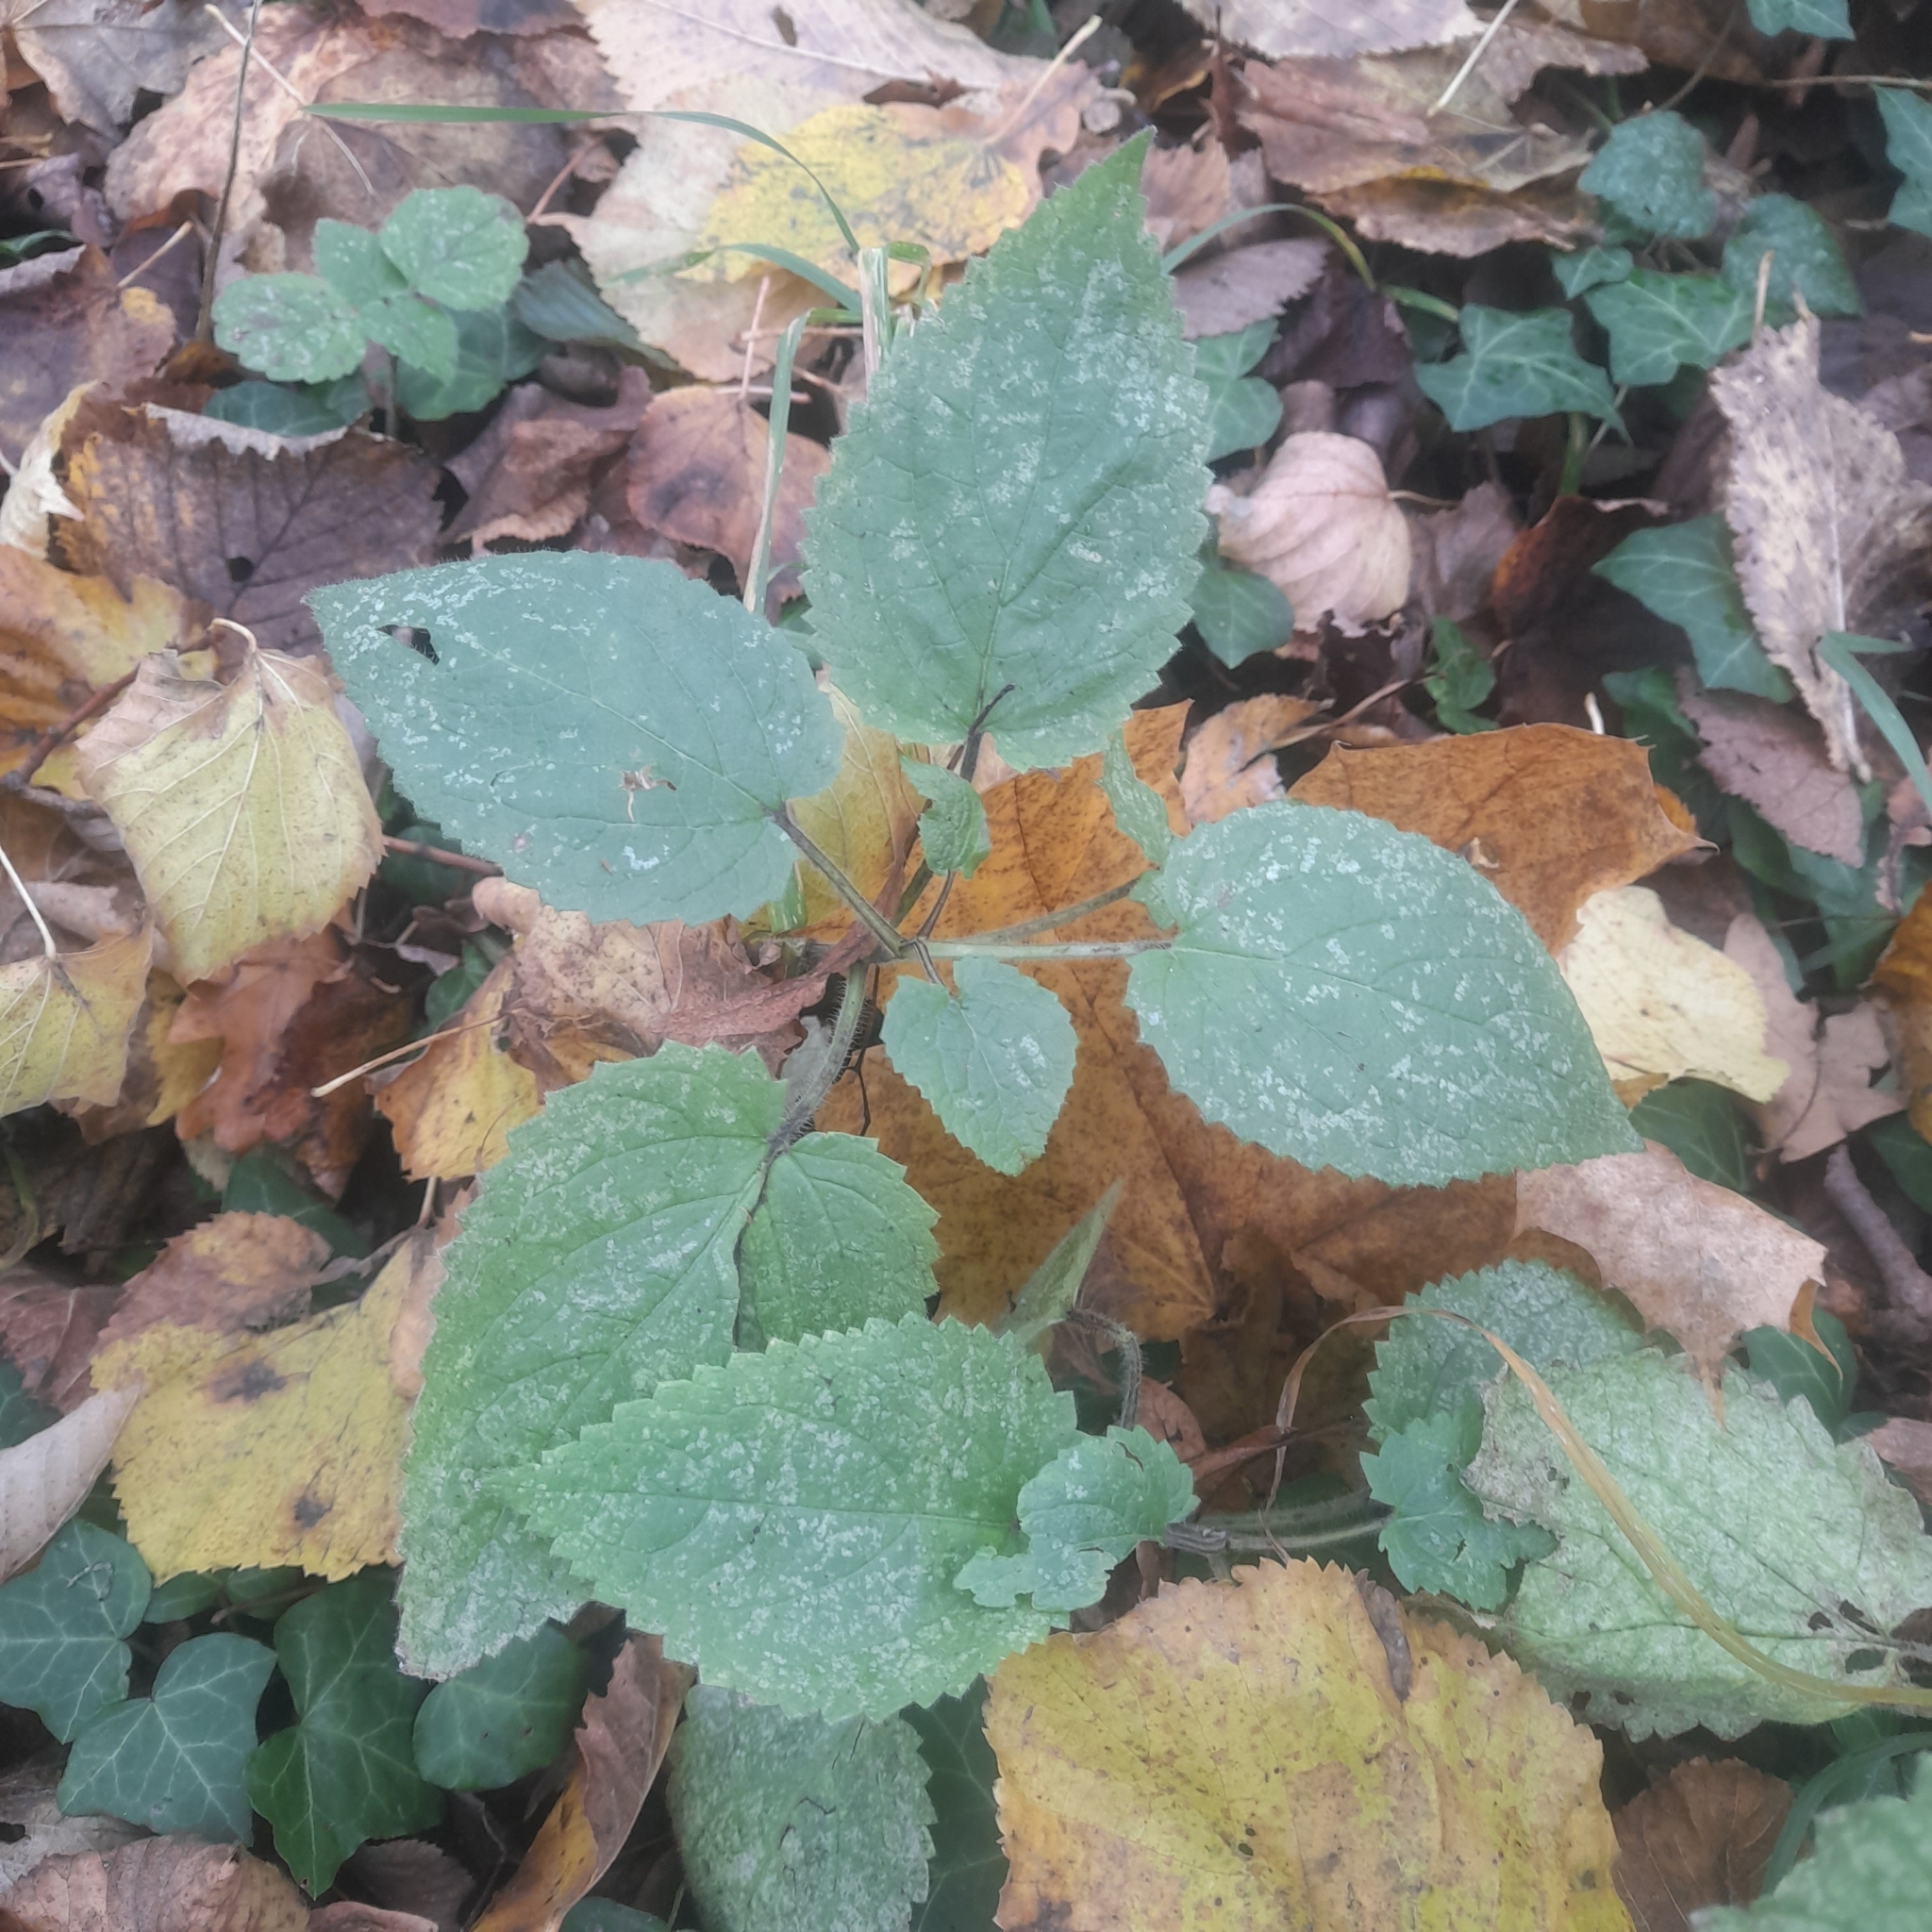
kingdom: Plantae
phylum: Tracheophyta
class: Magnoliopsida
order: Lamiales
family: Lamiaceae
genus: Stachys
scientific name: Stachys sylvatica
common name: Hedge woundwort
